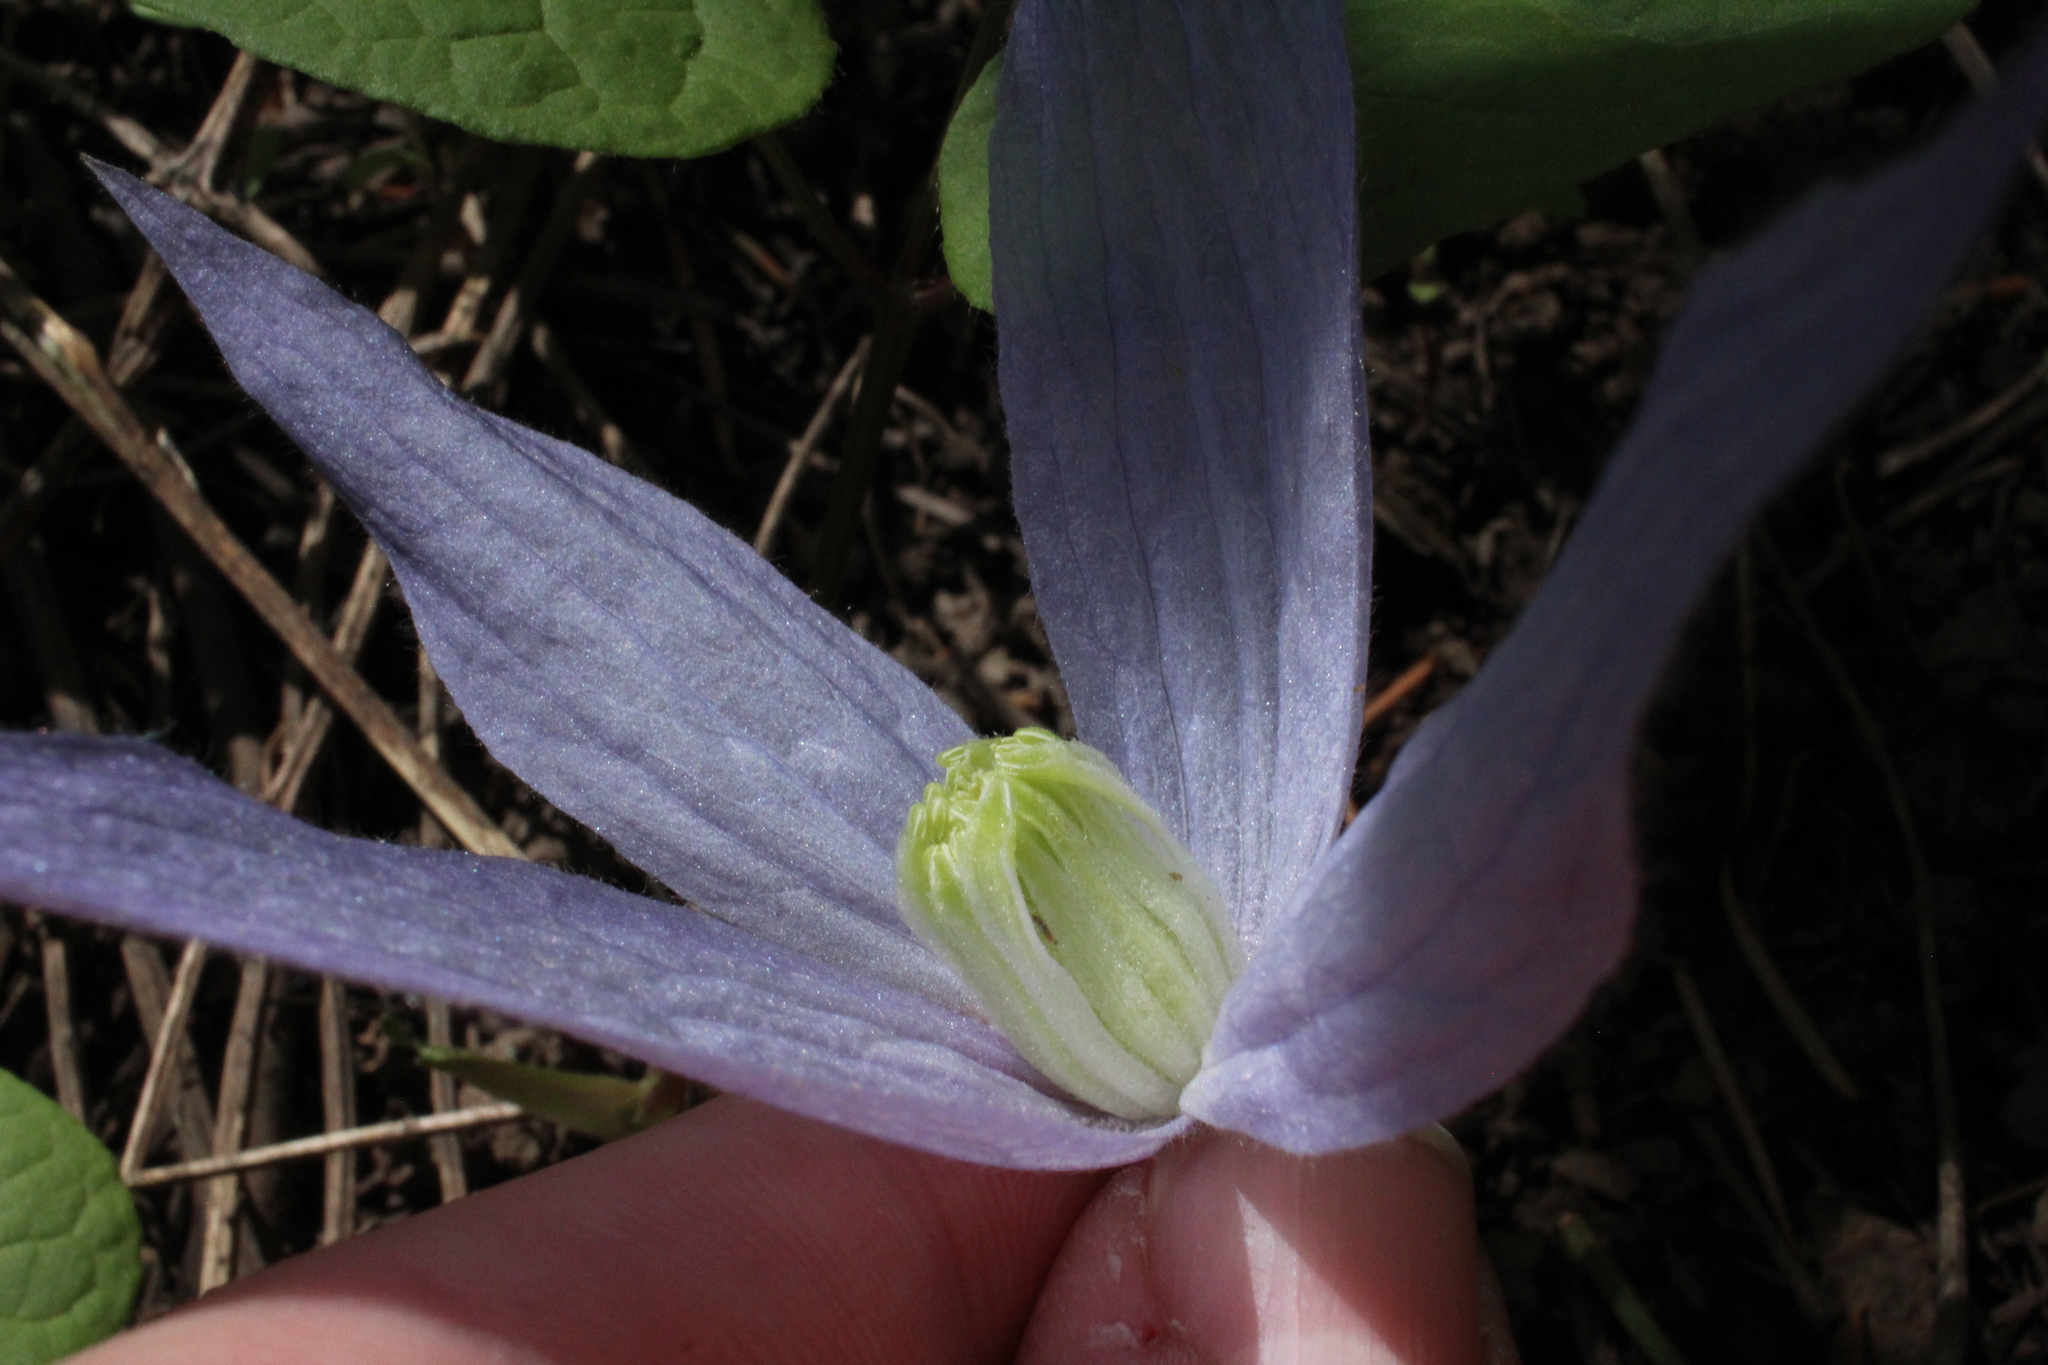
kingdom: Plantae
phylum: Tracheophyta
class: Magnoliopsida
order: Ranunculales
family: Ranunculaceae
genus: Clematis
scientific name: Clematis occidentalis
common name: Purple clematis
